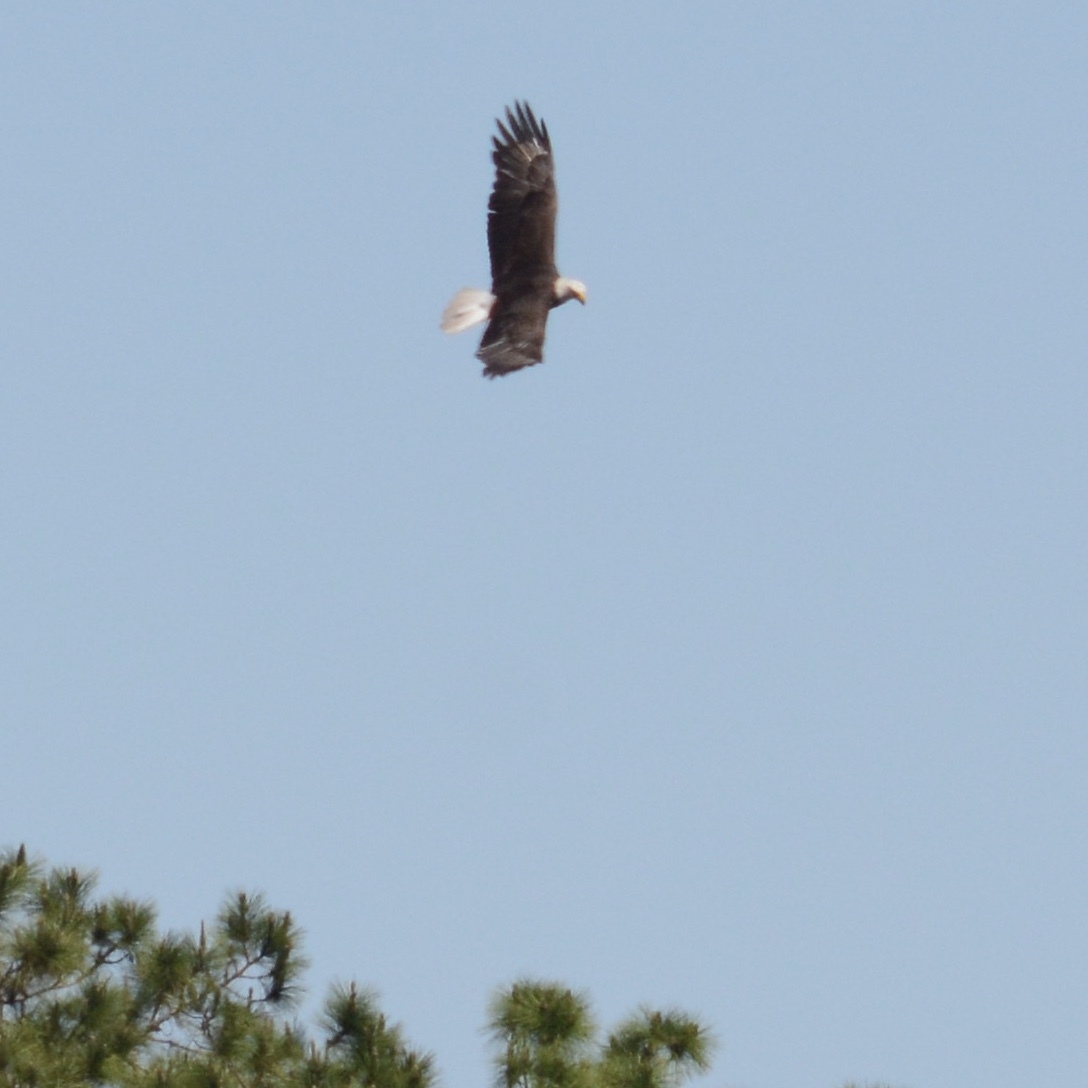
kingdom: Animalia
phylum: Chordata
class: Aves
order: Accipitriformes
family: Accipitridae
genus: Haliaeetus
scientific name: Haliaeetus leucocephalus
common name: Bald eagle
